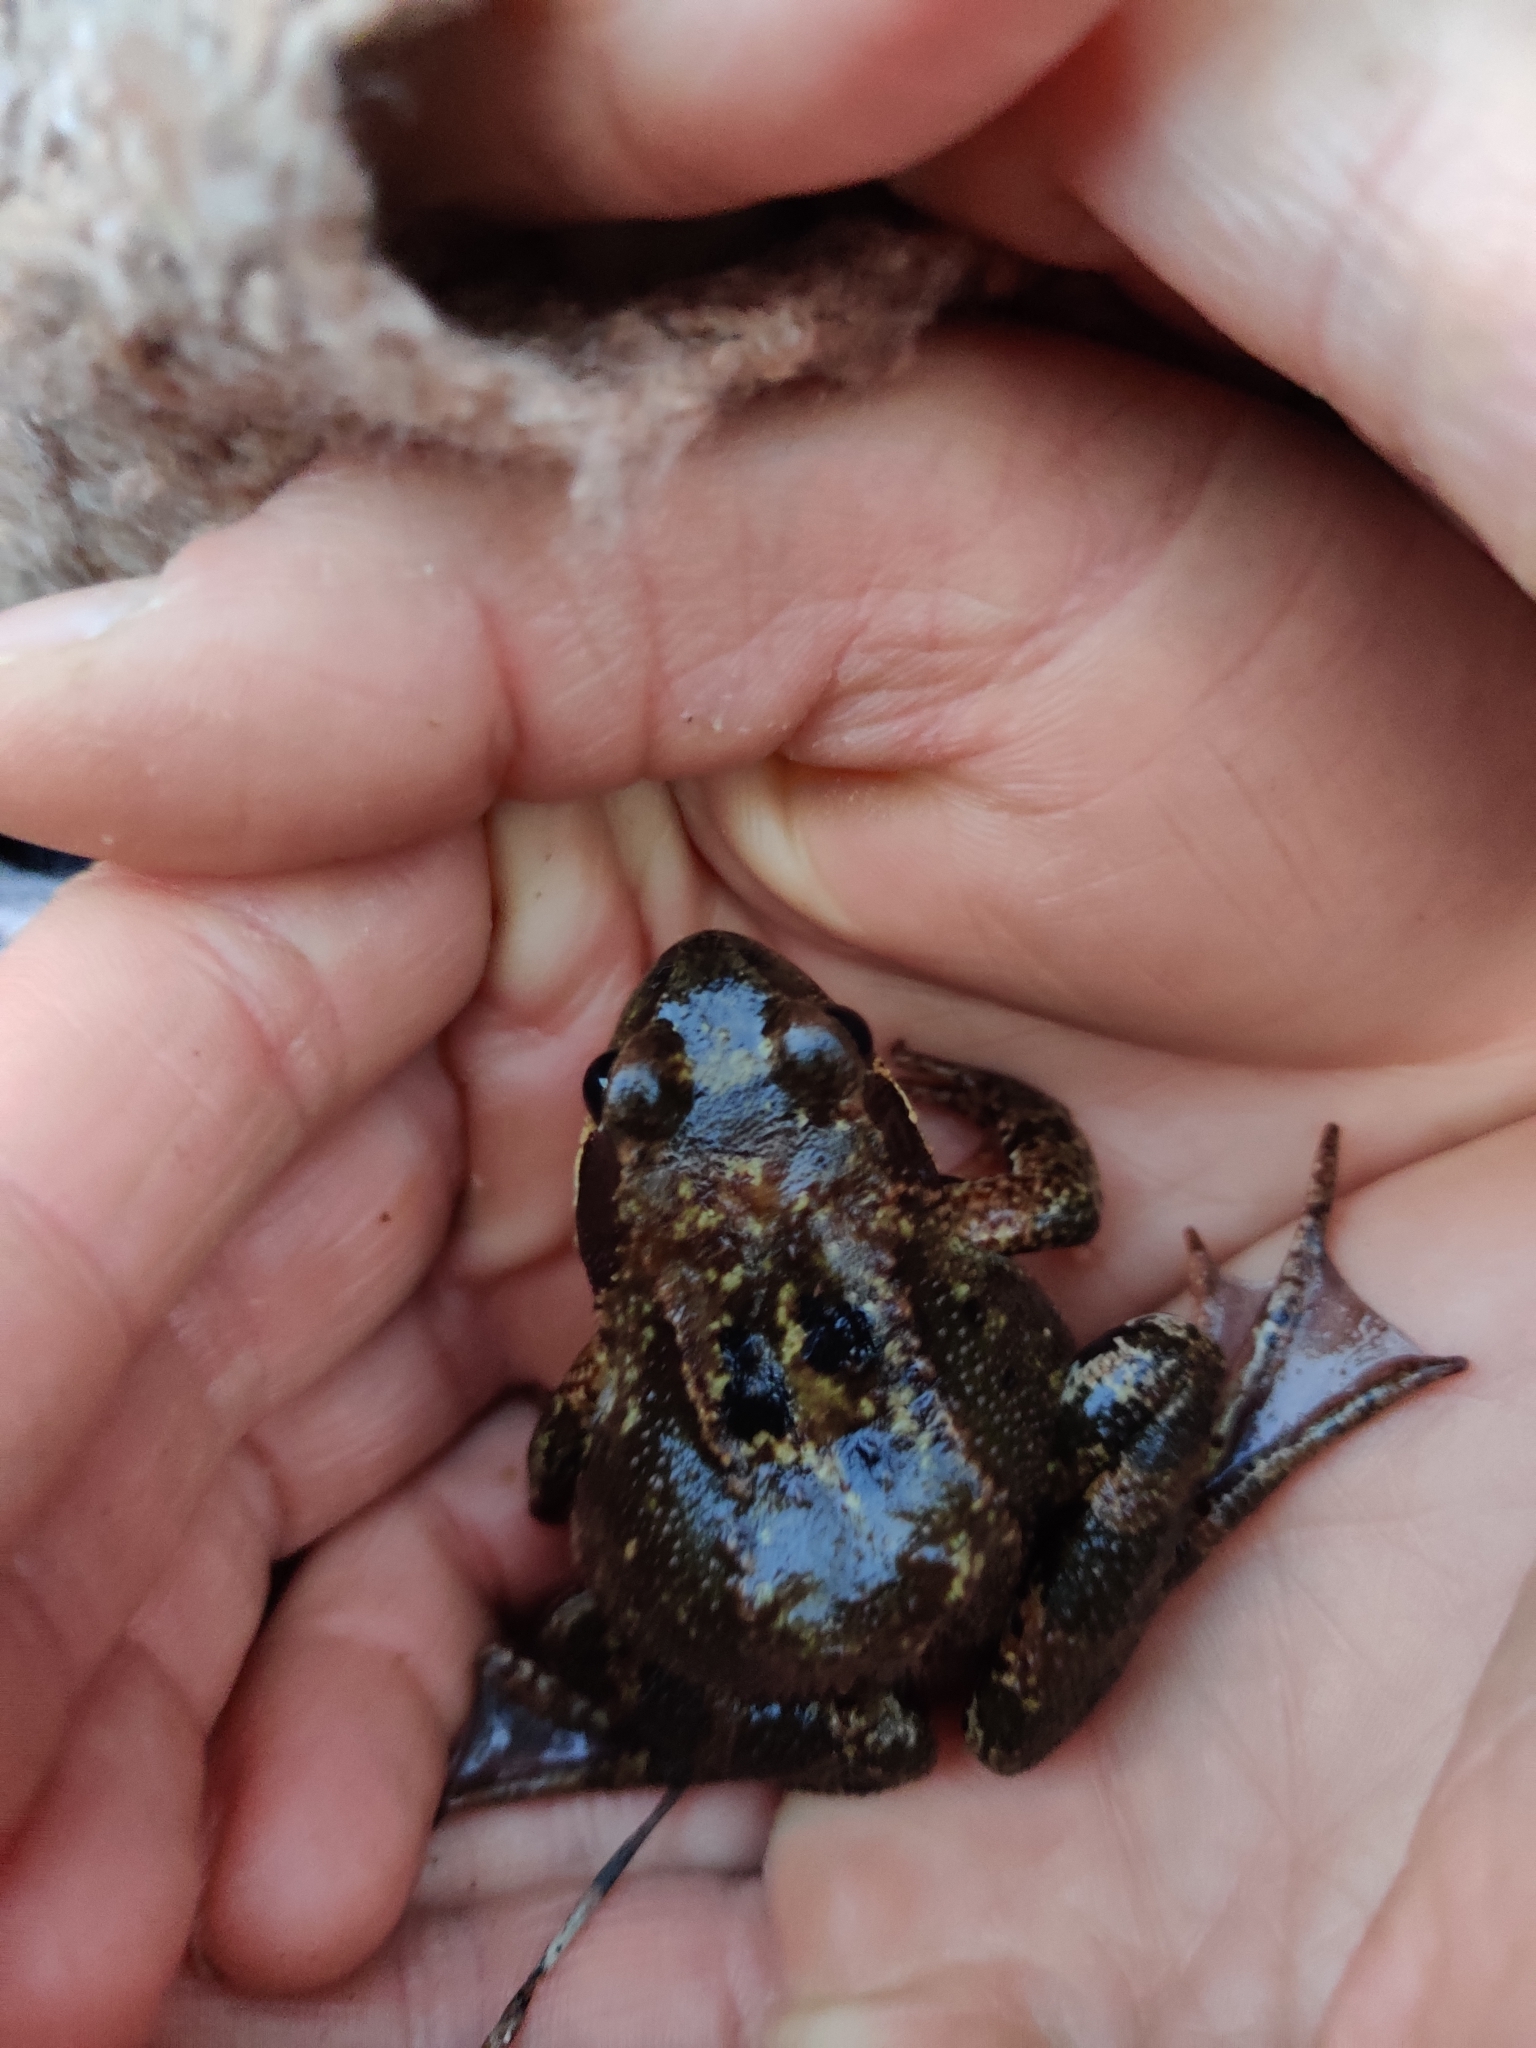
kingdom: Animalia
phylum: Chordata
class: Amphibia
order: Anura
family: Ranidae
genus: Rana
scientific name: Rana temporaria
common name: Common frog
